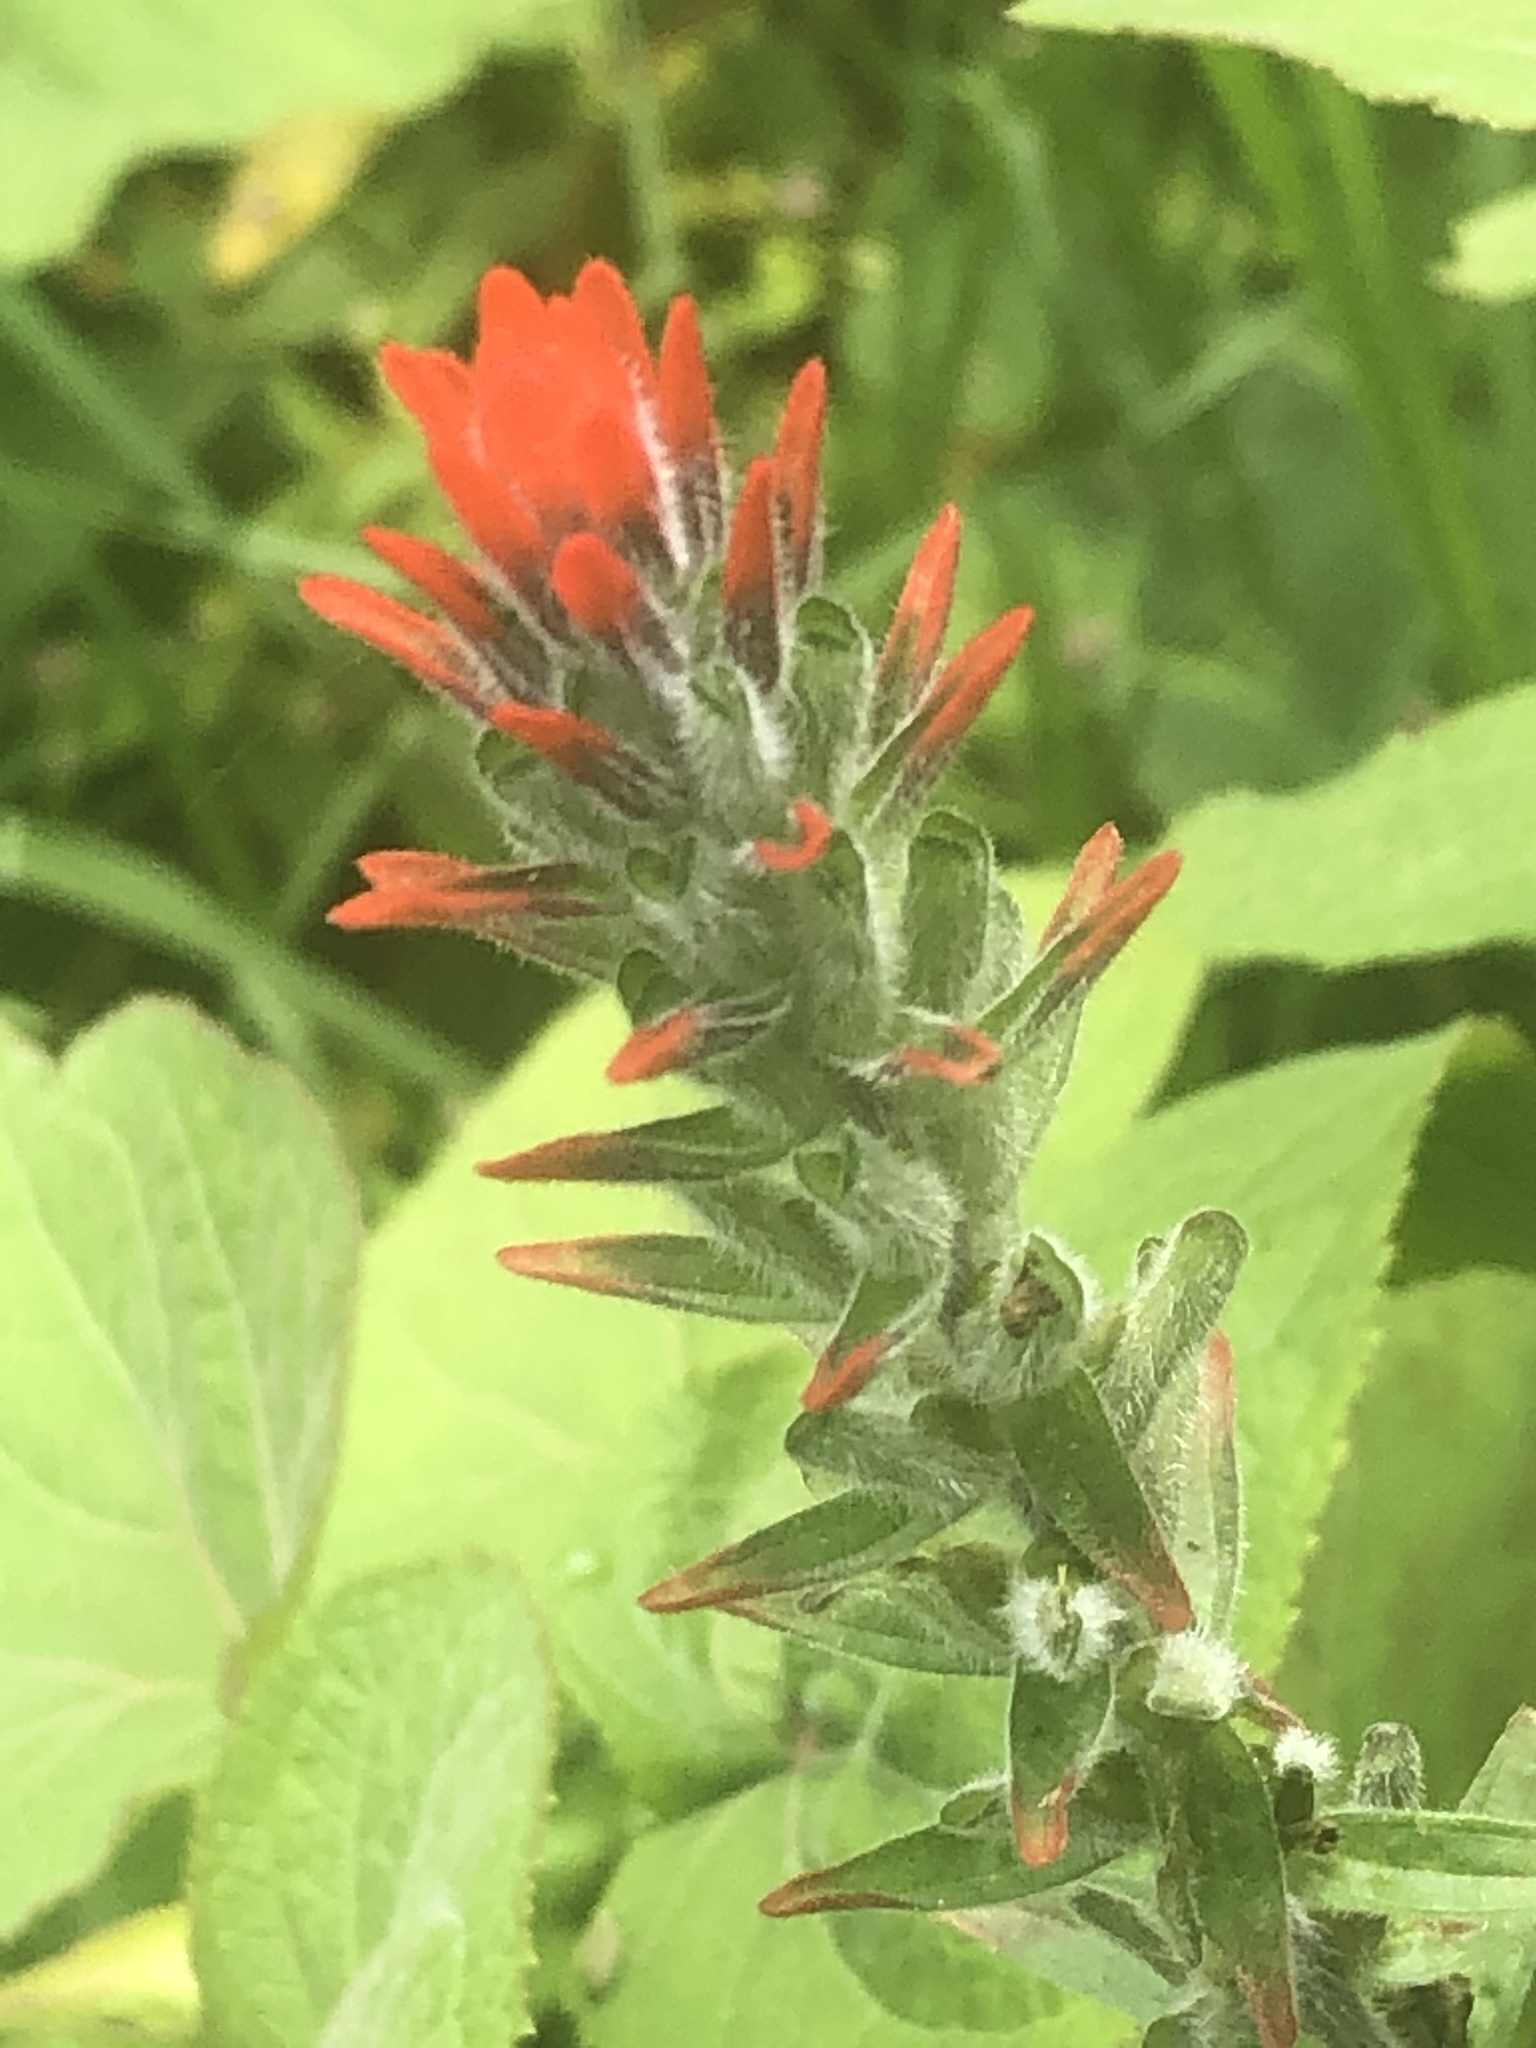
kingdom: Plantae
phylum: Tracheophyta
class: Magnoliopsida
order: Lamiales
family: Orobanchaceae
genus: Castilleja
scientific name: Castilleja arvensis
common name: Indian paintbrush
